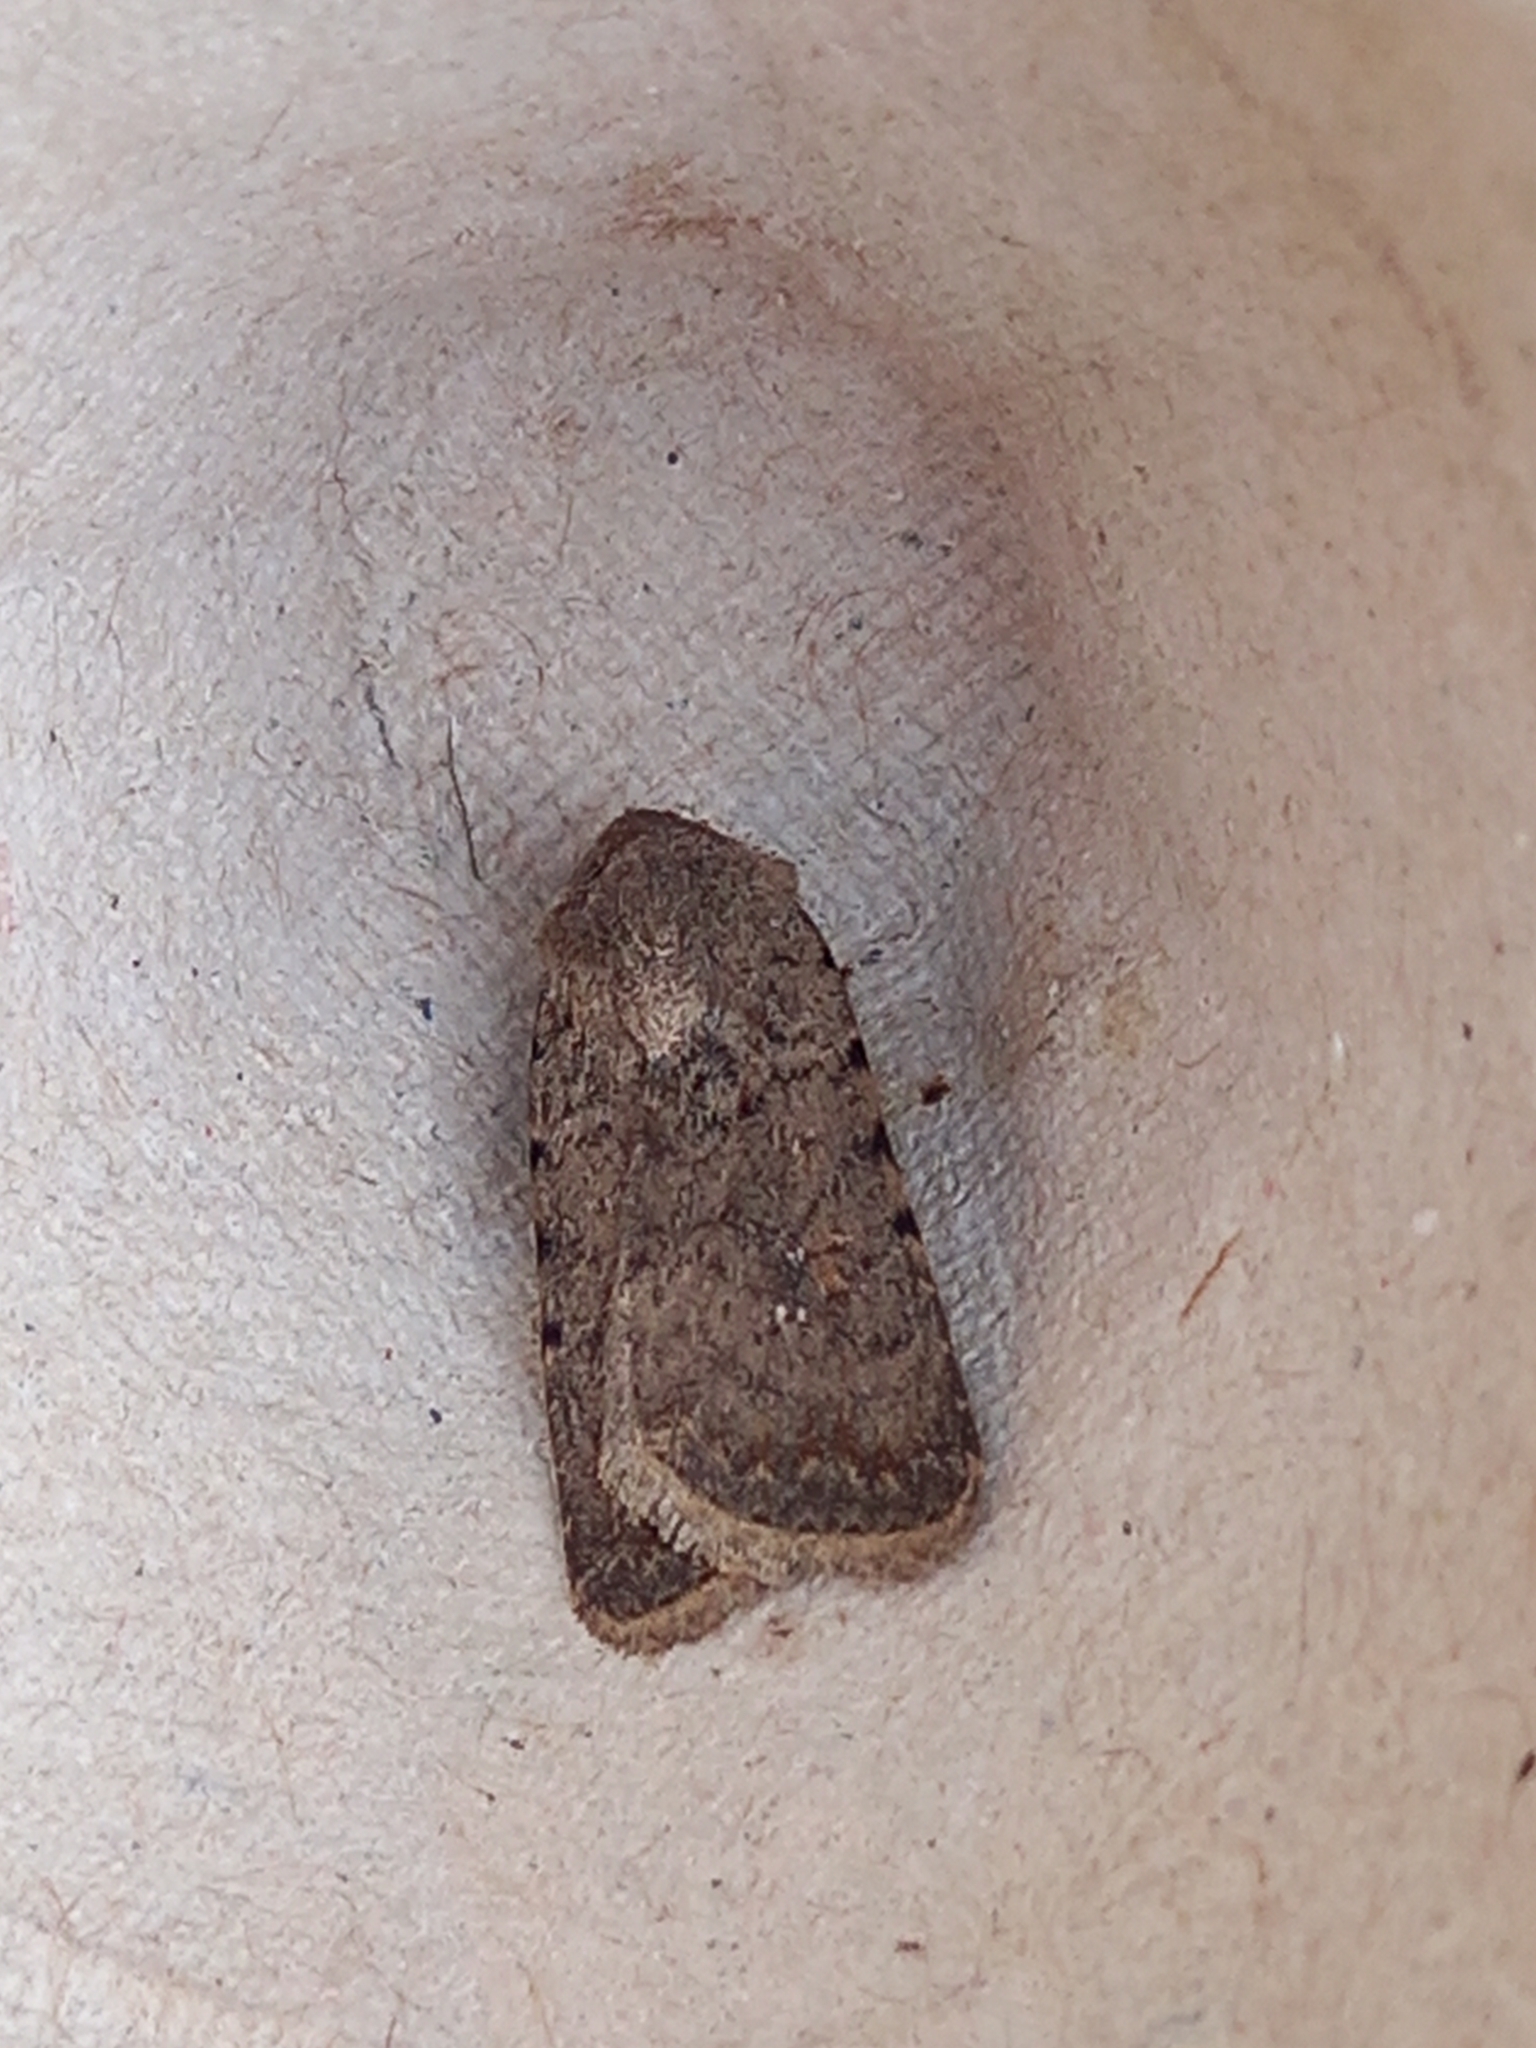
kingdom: Animalia
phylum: Arthropoda
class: Insecta
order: Lepidoptera
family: Noctuidae
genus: Caradrina
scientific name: Caradrina clavipalpis
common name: Pale mottled willow
